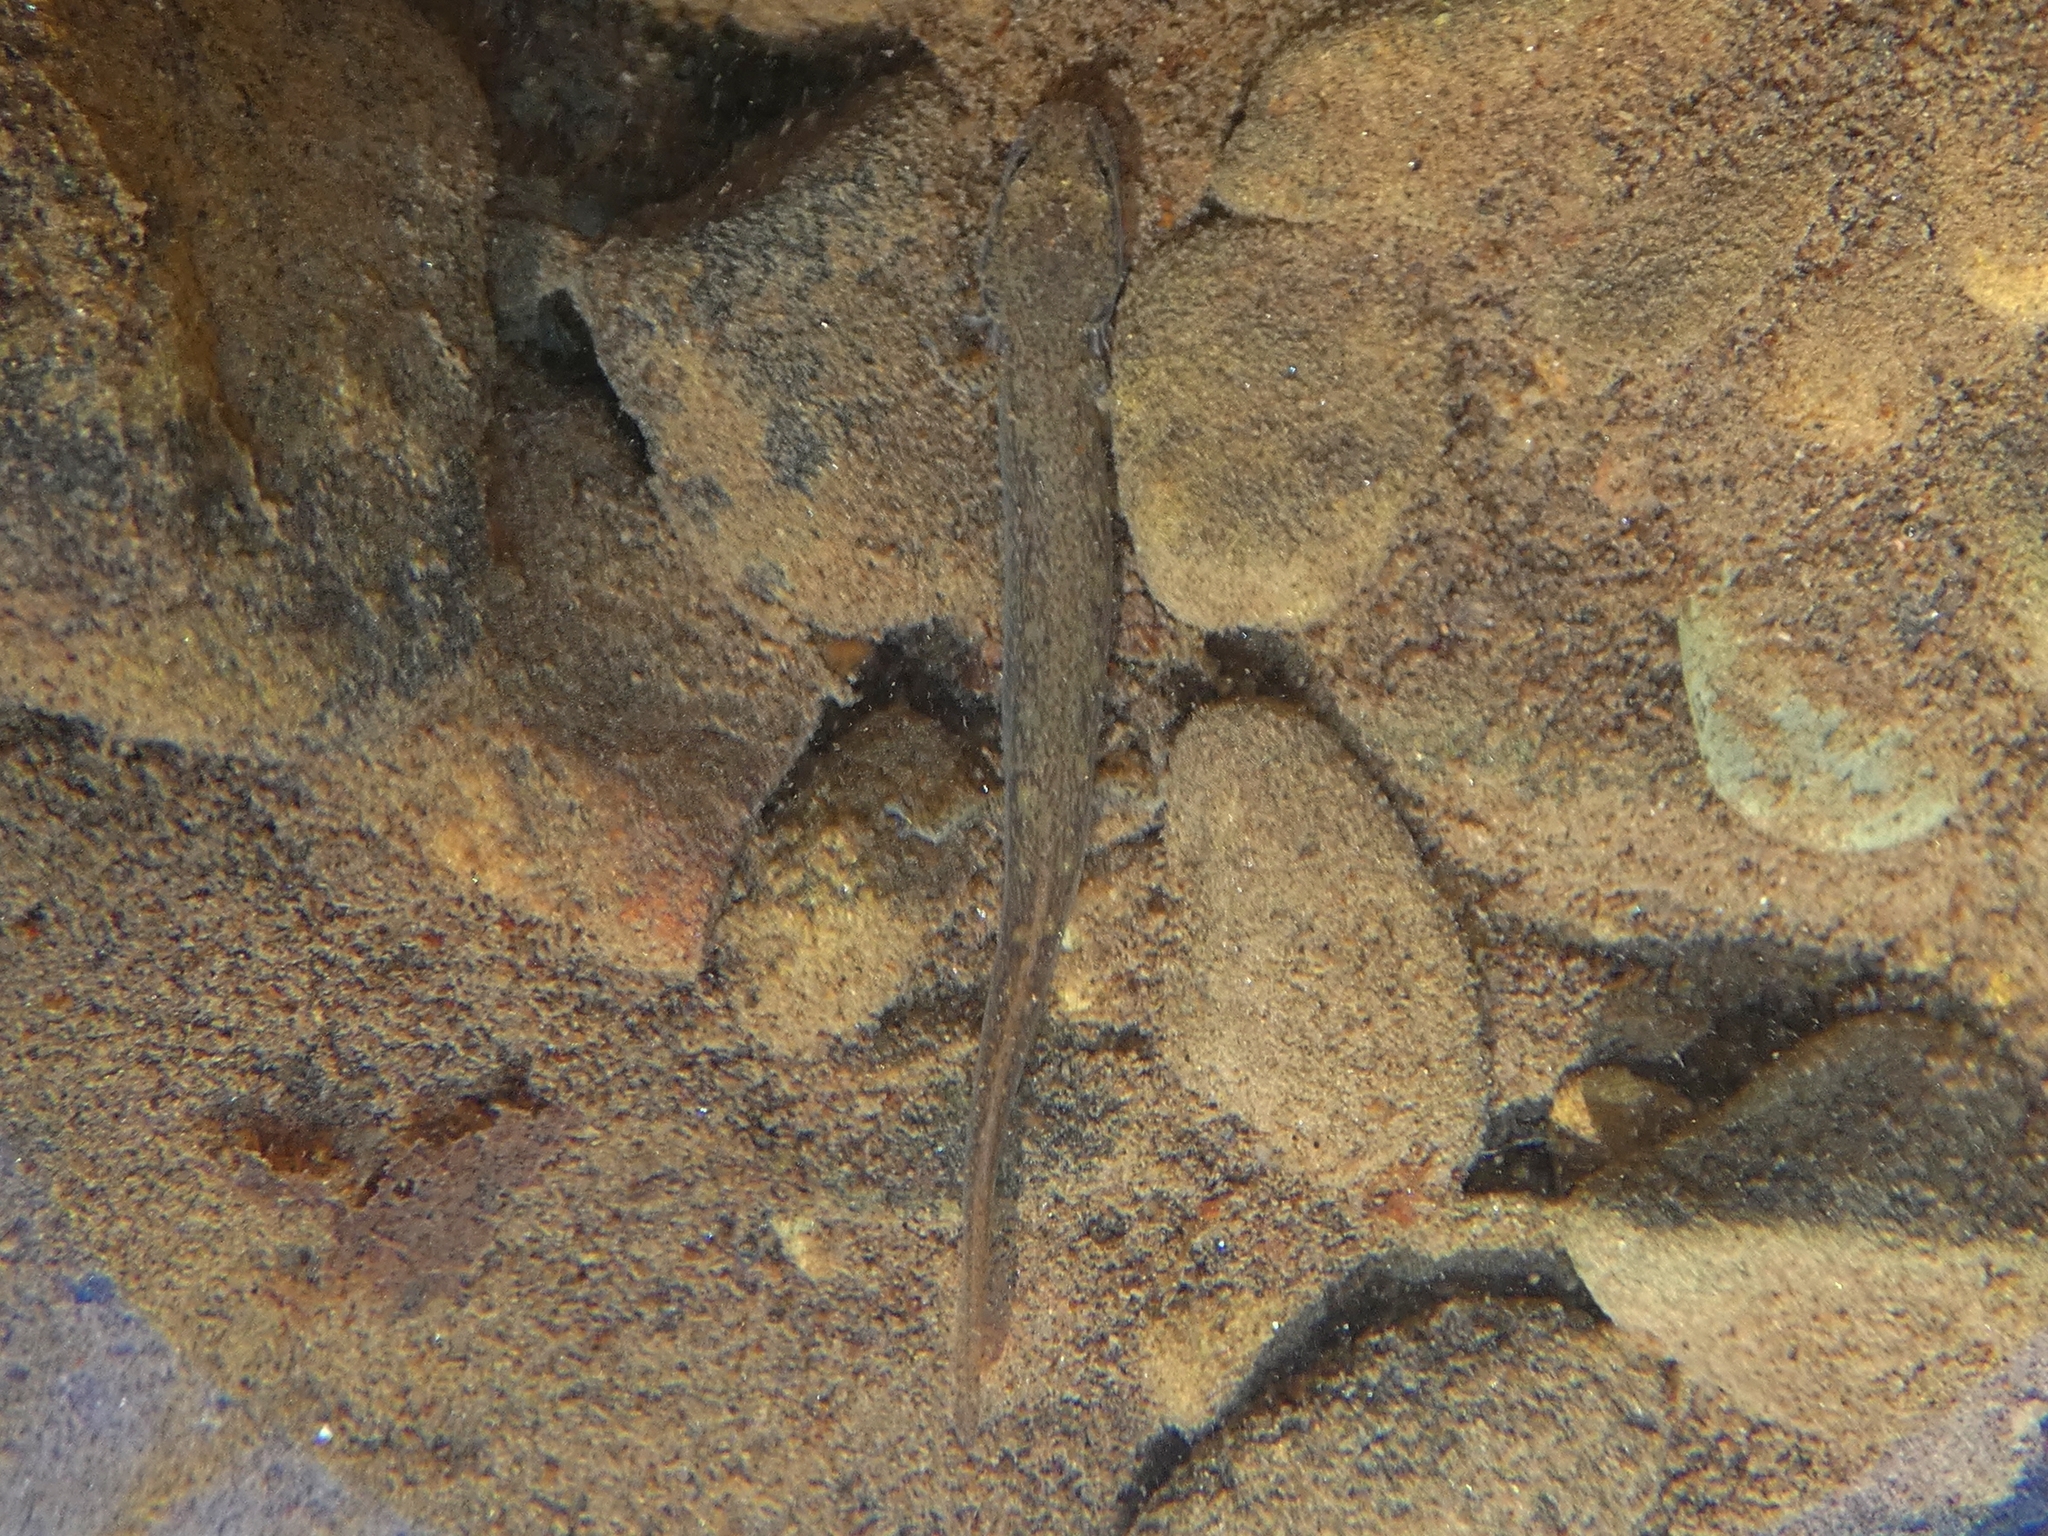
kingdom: Animalia
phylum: Chordata
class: Amphibia
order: Caudata
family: Plethodontidae
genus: Eurycea
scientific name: Eurycea bislineata
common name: Northern two-lined salamander
